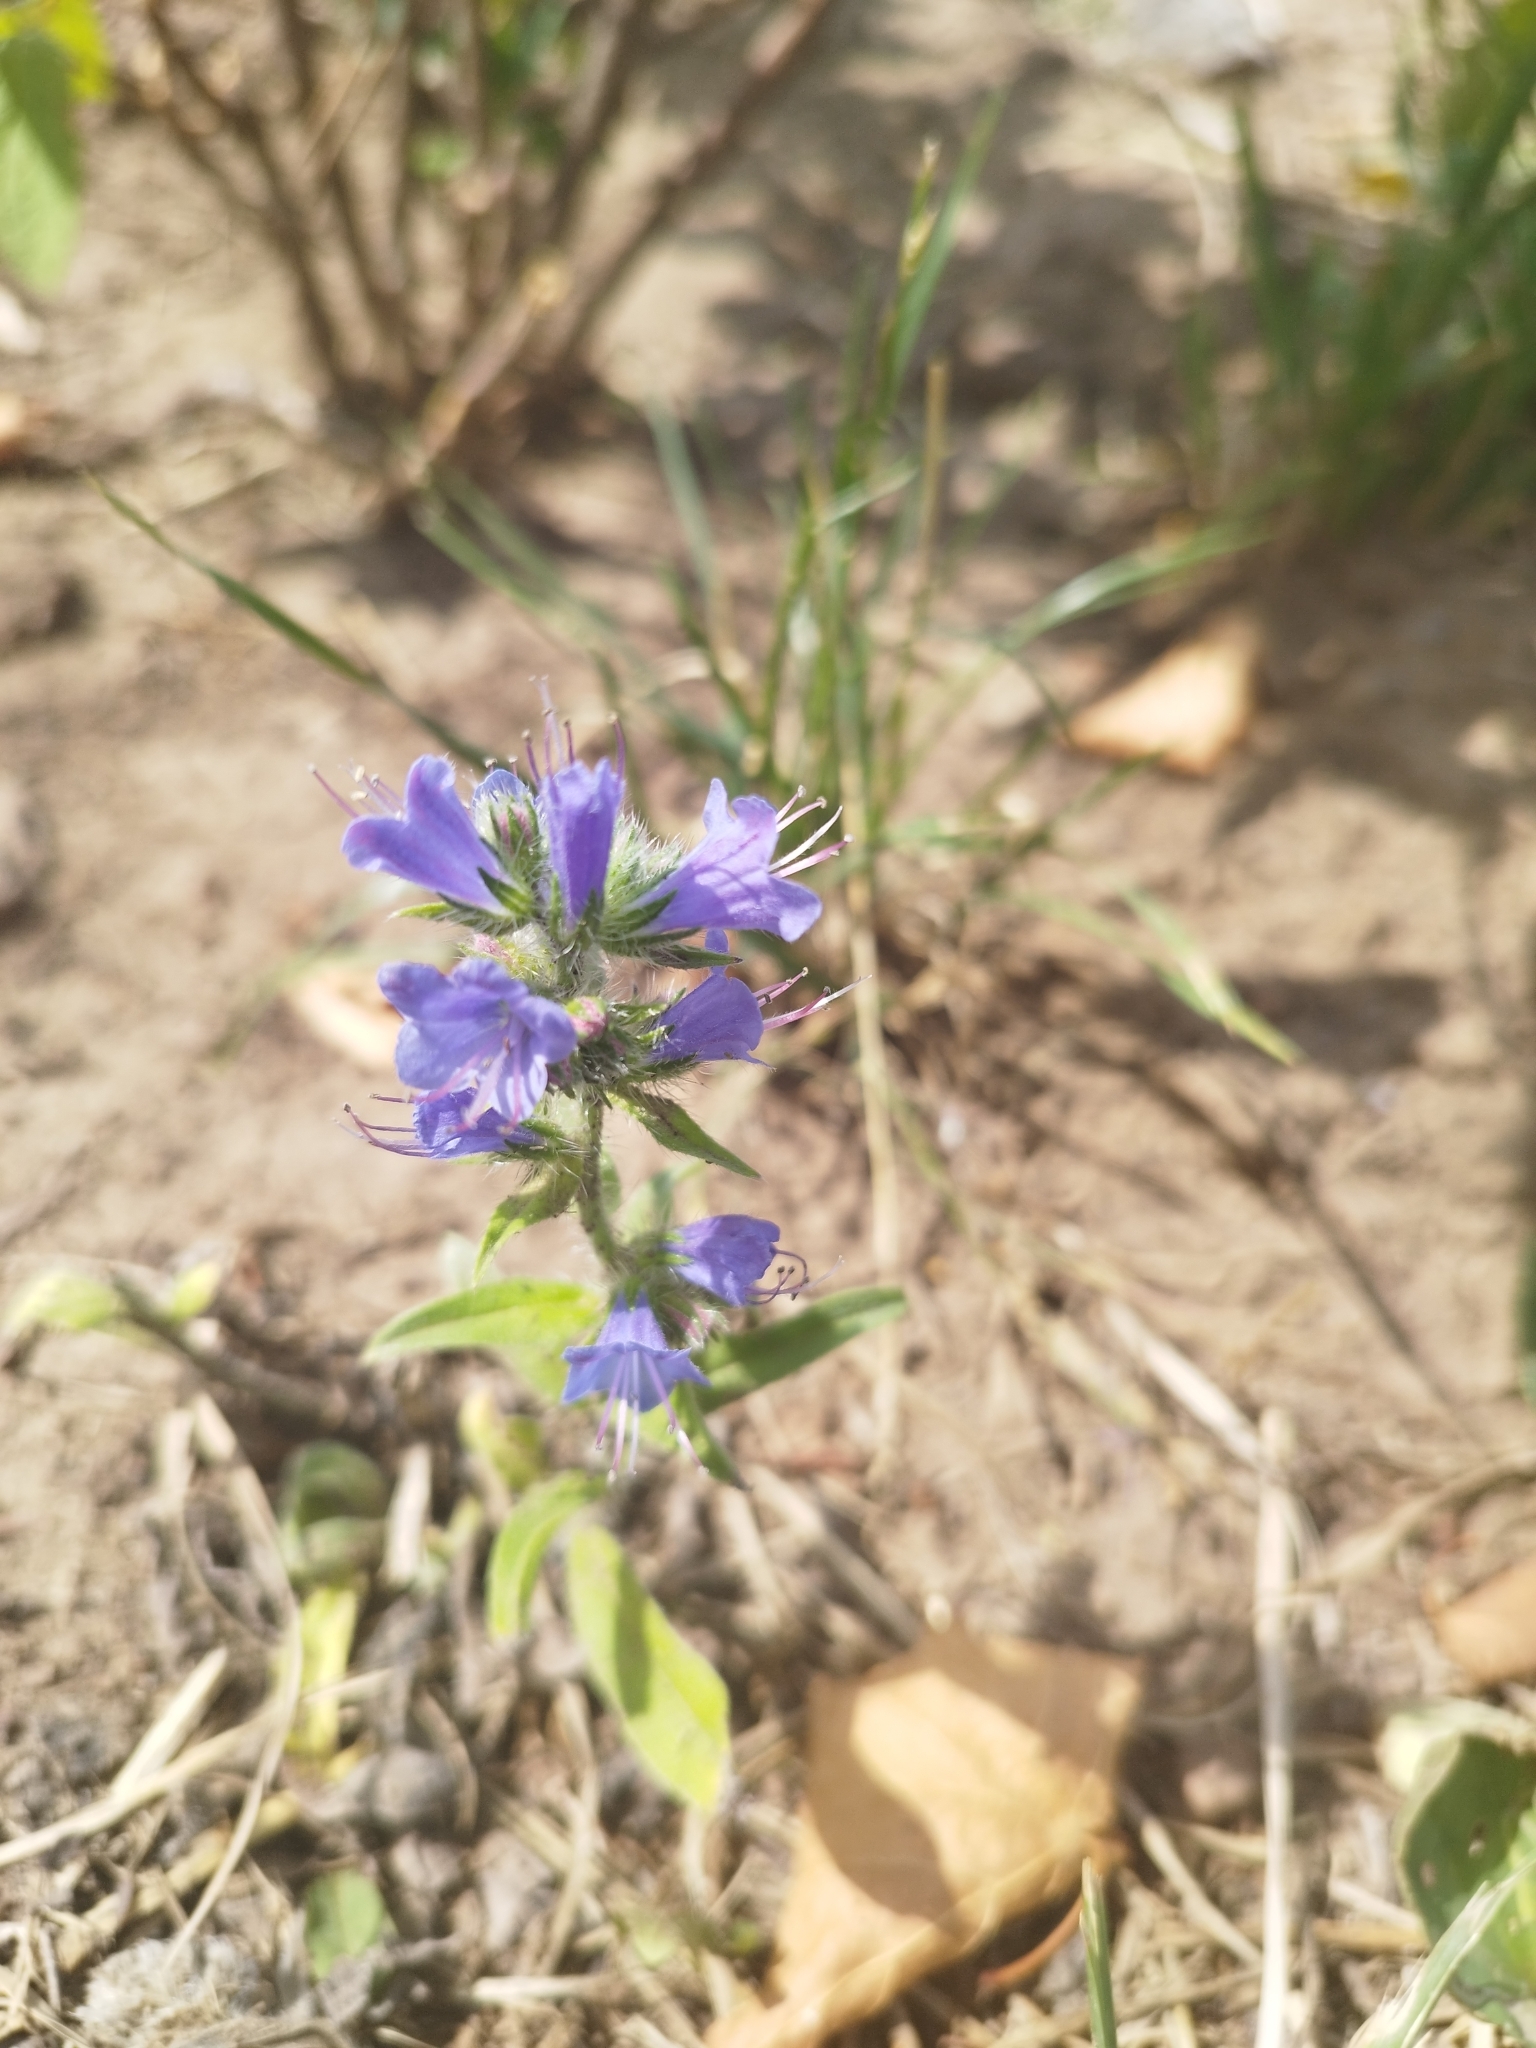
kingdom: Plantae
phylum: Tracheophyta
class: Magnoliopsida
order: Boraginales
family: Boraginaceae
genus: Echium
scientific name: Echium vulgare
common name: Common viper's bugloss
